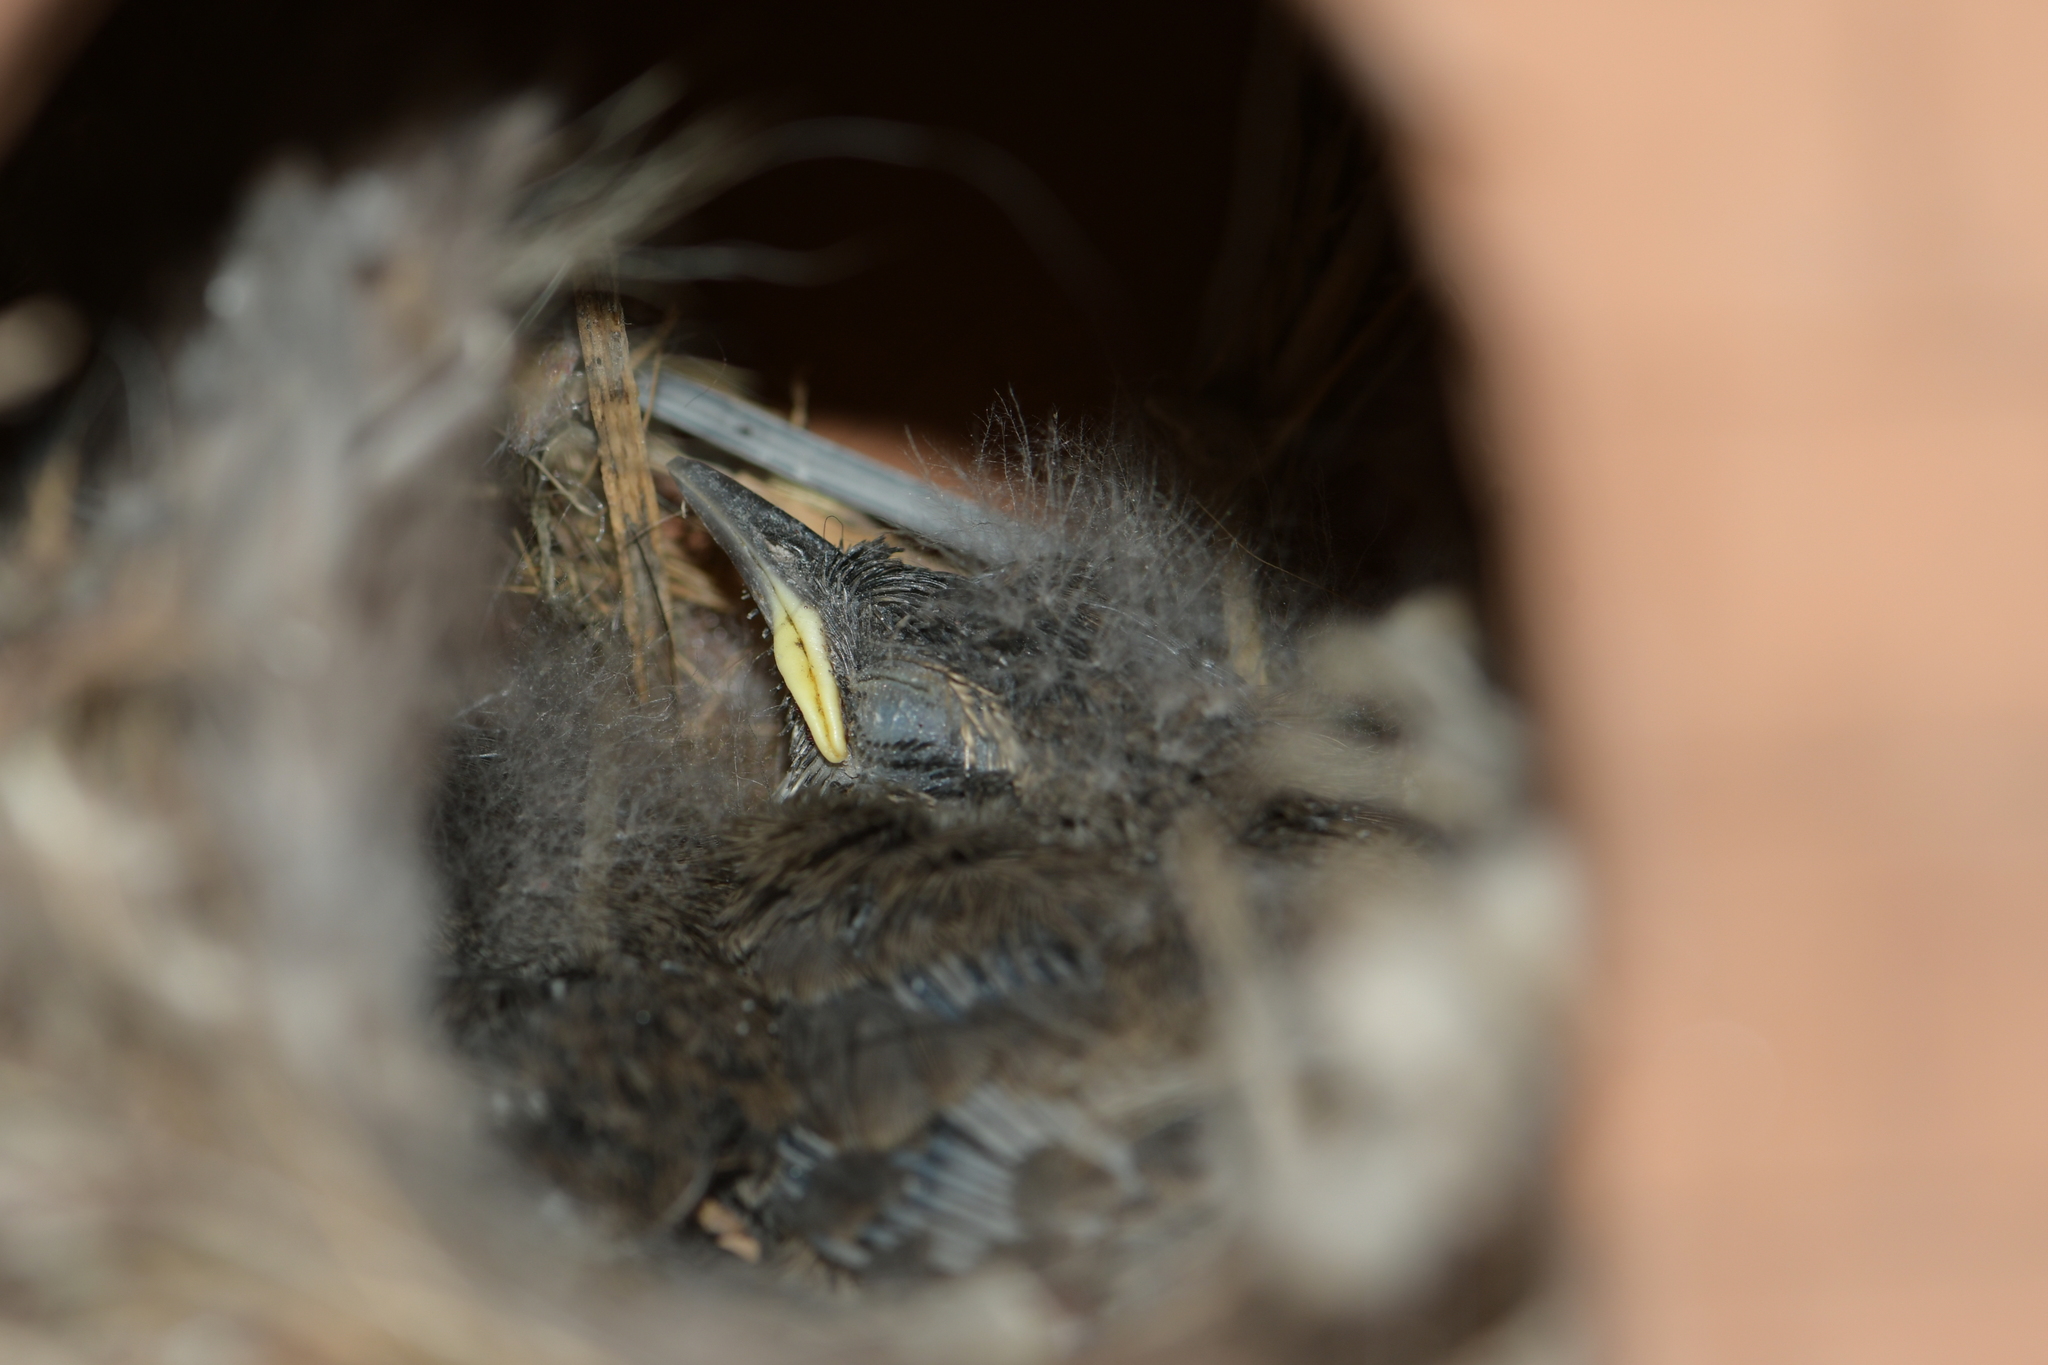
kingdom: Animalia
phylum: Chordata
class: Aves
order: Passeriformes
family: Troglodytidae
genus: Thryomanes
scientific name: Thryomanes bewickii
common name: Bewick's wren
